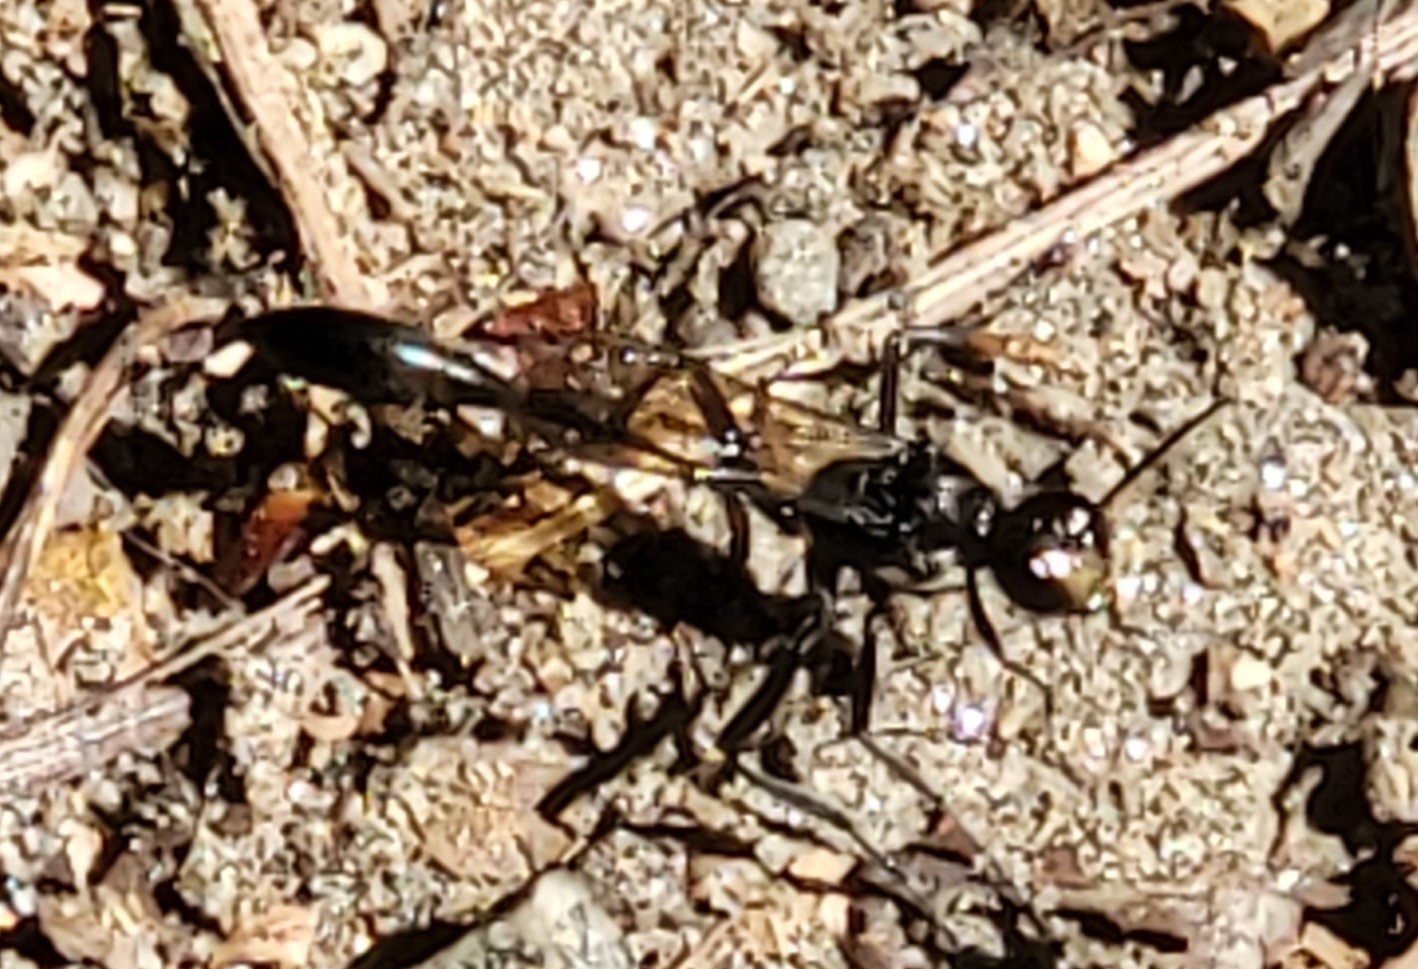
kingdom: Animalia
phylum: Arthropoda
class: Insecta
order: Hymenoptera
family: Sphecidae
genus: Eremnophila
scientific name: Eremnophila aureonotata
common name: Gold-marked thread-waisted wasp
